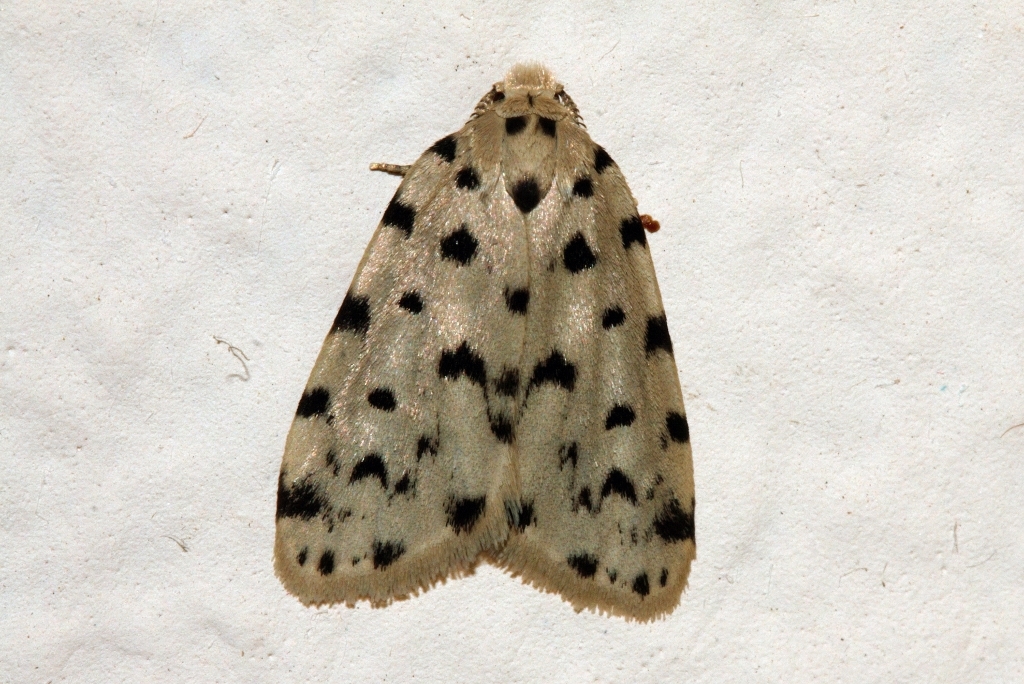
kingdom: Animalia
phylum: Arthropoda
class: Insecta
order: Lepidoptera
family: Erebidae
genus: Siccia
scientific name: Siccia caffra
